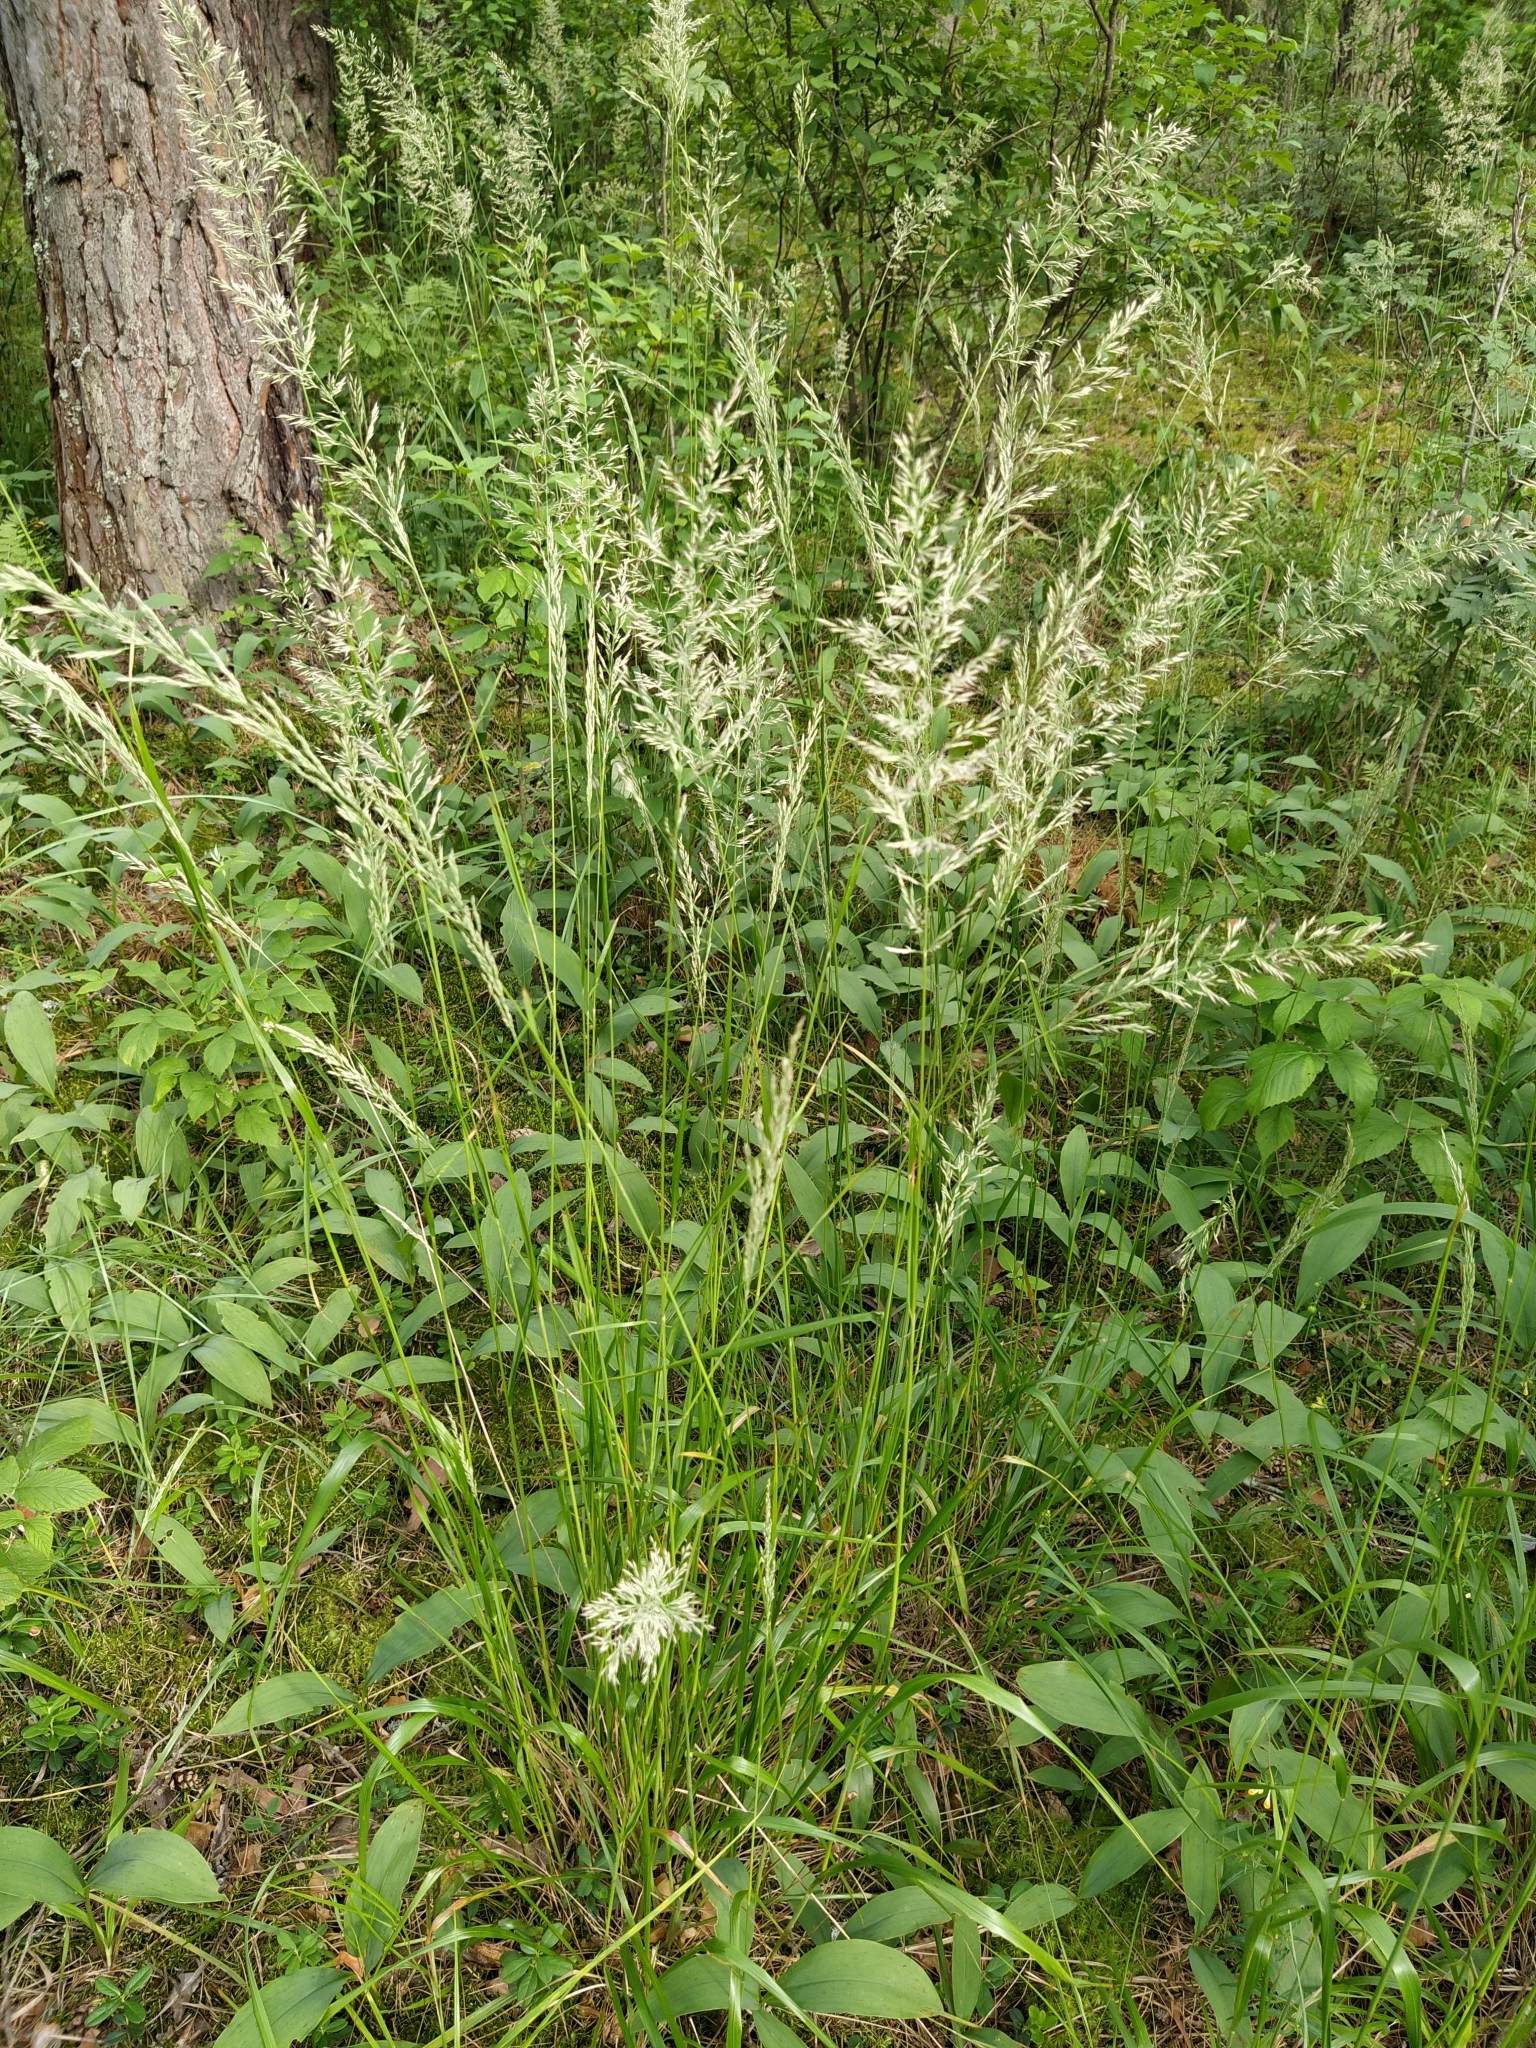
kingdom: Plantae
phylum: Tracheophyta
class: Liliopsida
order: Poales
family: Poaceae
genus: Calamagrostis
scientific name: Calamagrostis arundinacea
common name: Metskastik
